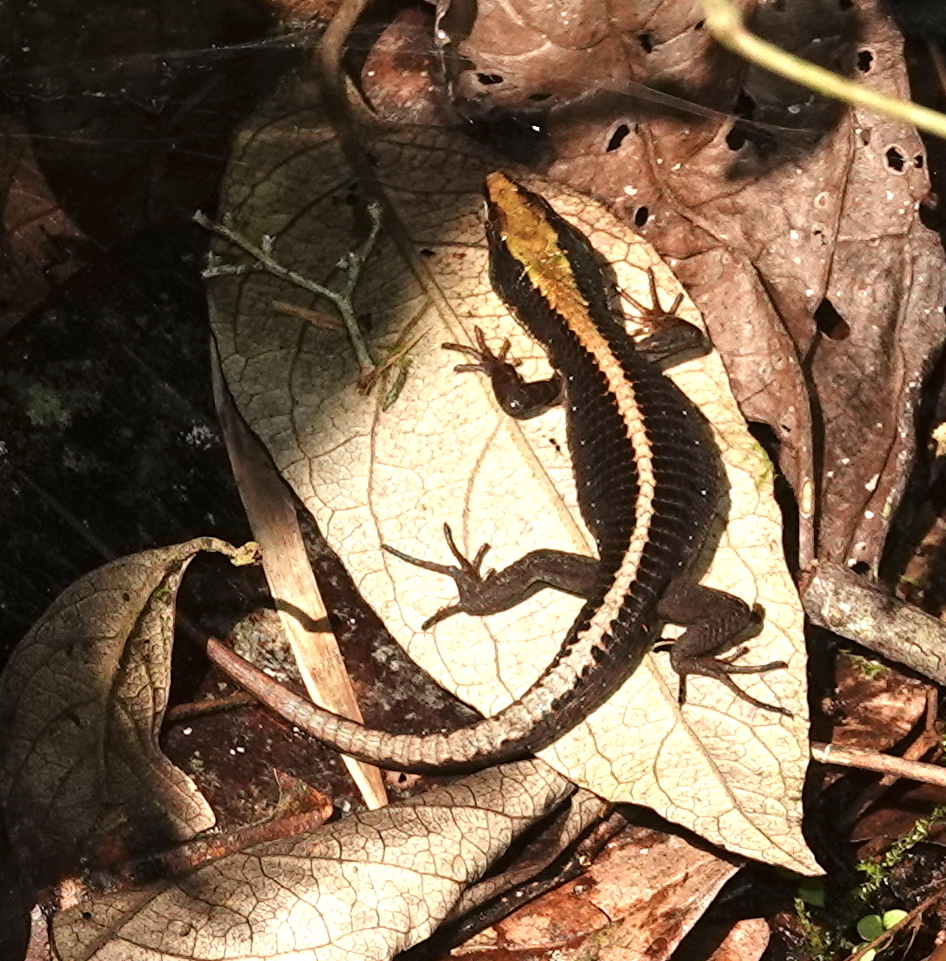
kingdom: Animalia
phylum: Chordata
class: Squamata
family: Gymnophthalmidae
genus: Pholidobolus
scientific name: Pholidobolus vertebralis
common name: Brown prionodactylus
